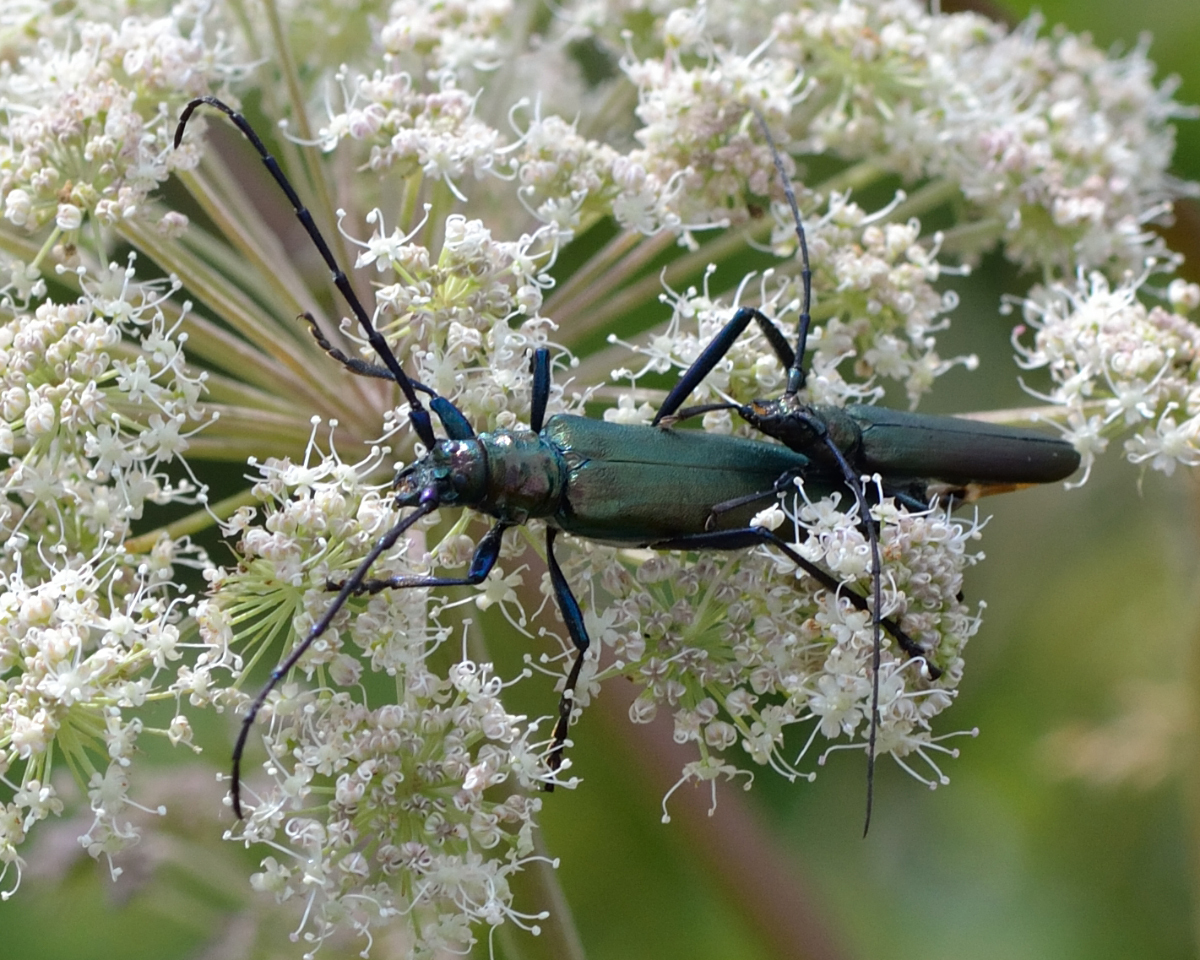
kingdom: Animalia
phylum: Arthropoda
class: Insecta
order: Coleoptera
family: Cerambycidae
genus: Aromia
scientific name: Aromia moschata
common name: Musk beetle
